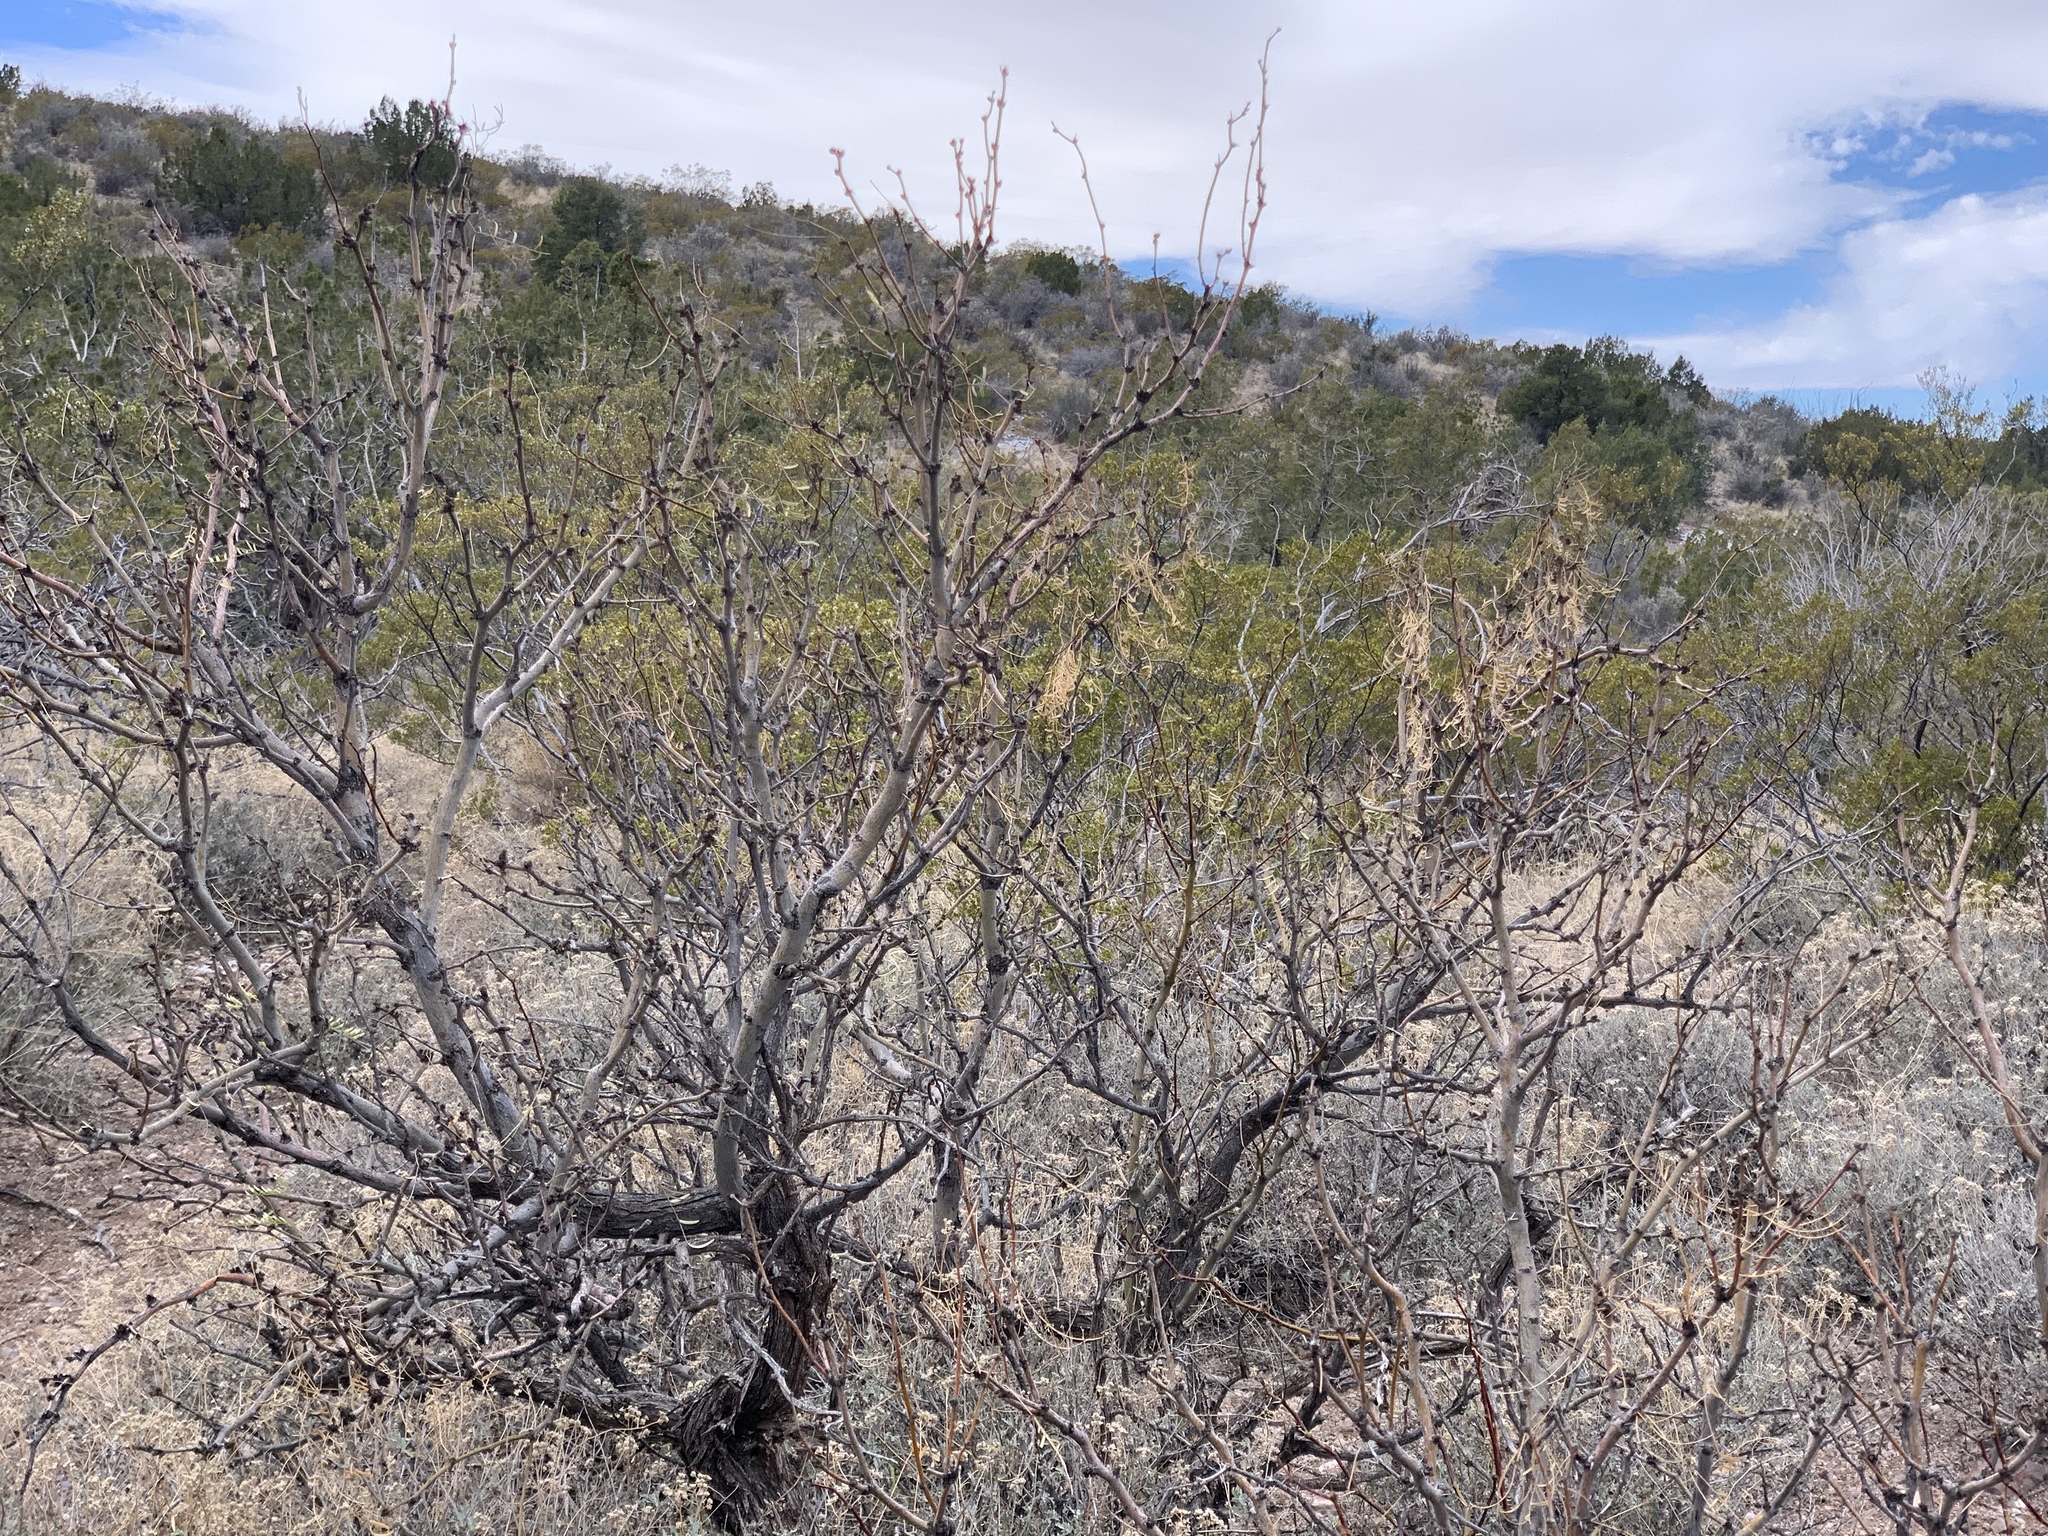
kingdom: Plantae
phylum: Tracheophyta
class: Magnoliopsida
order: Fabales
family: Fabaceae
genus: Prosopis
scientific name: Prosopis glandulosa
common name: Honey mesquite
